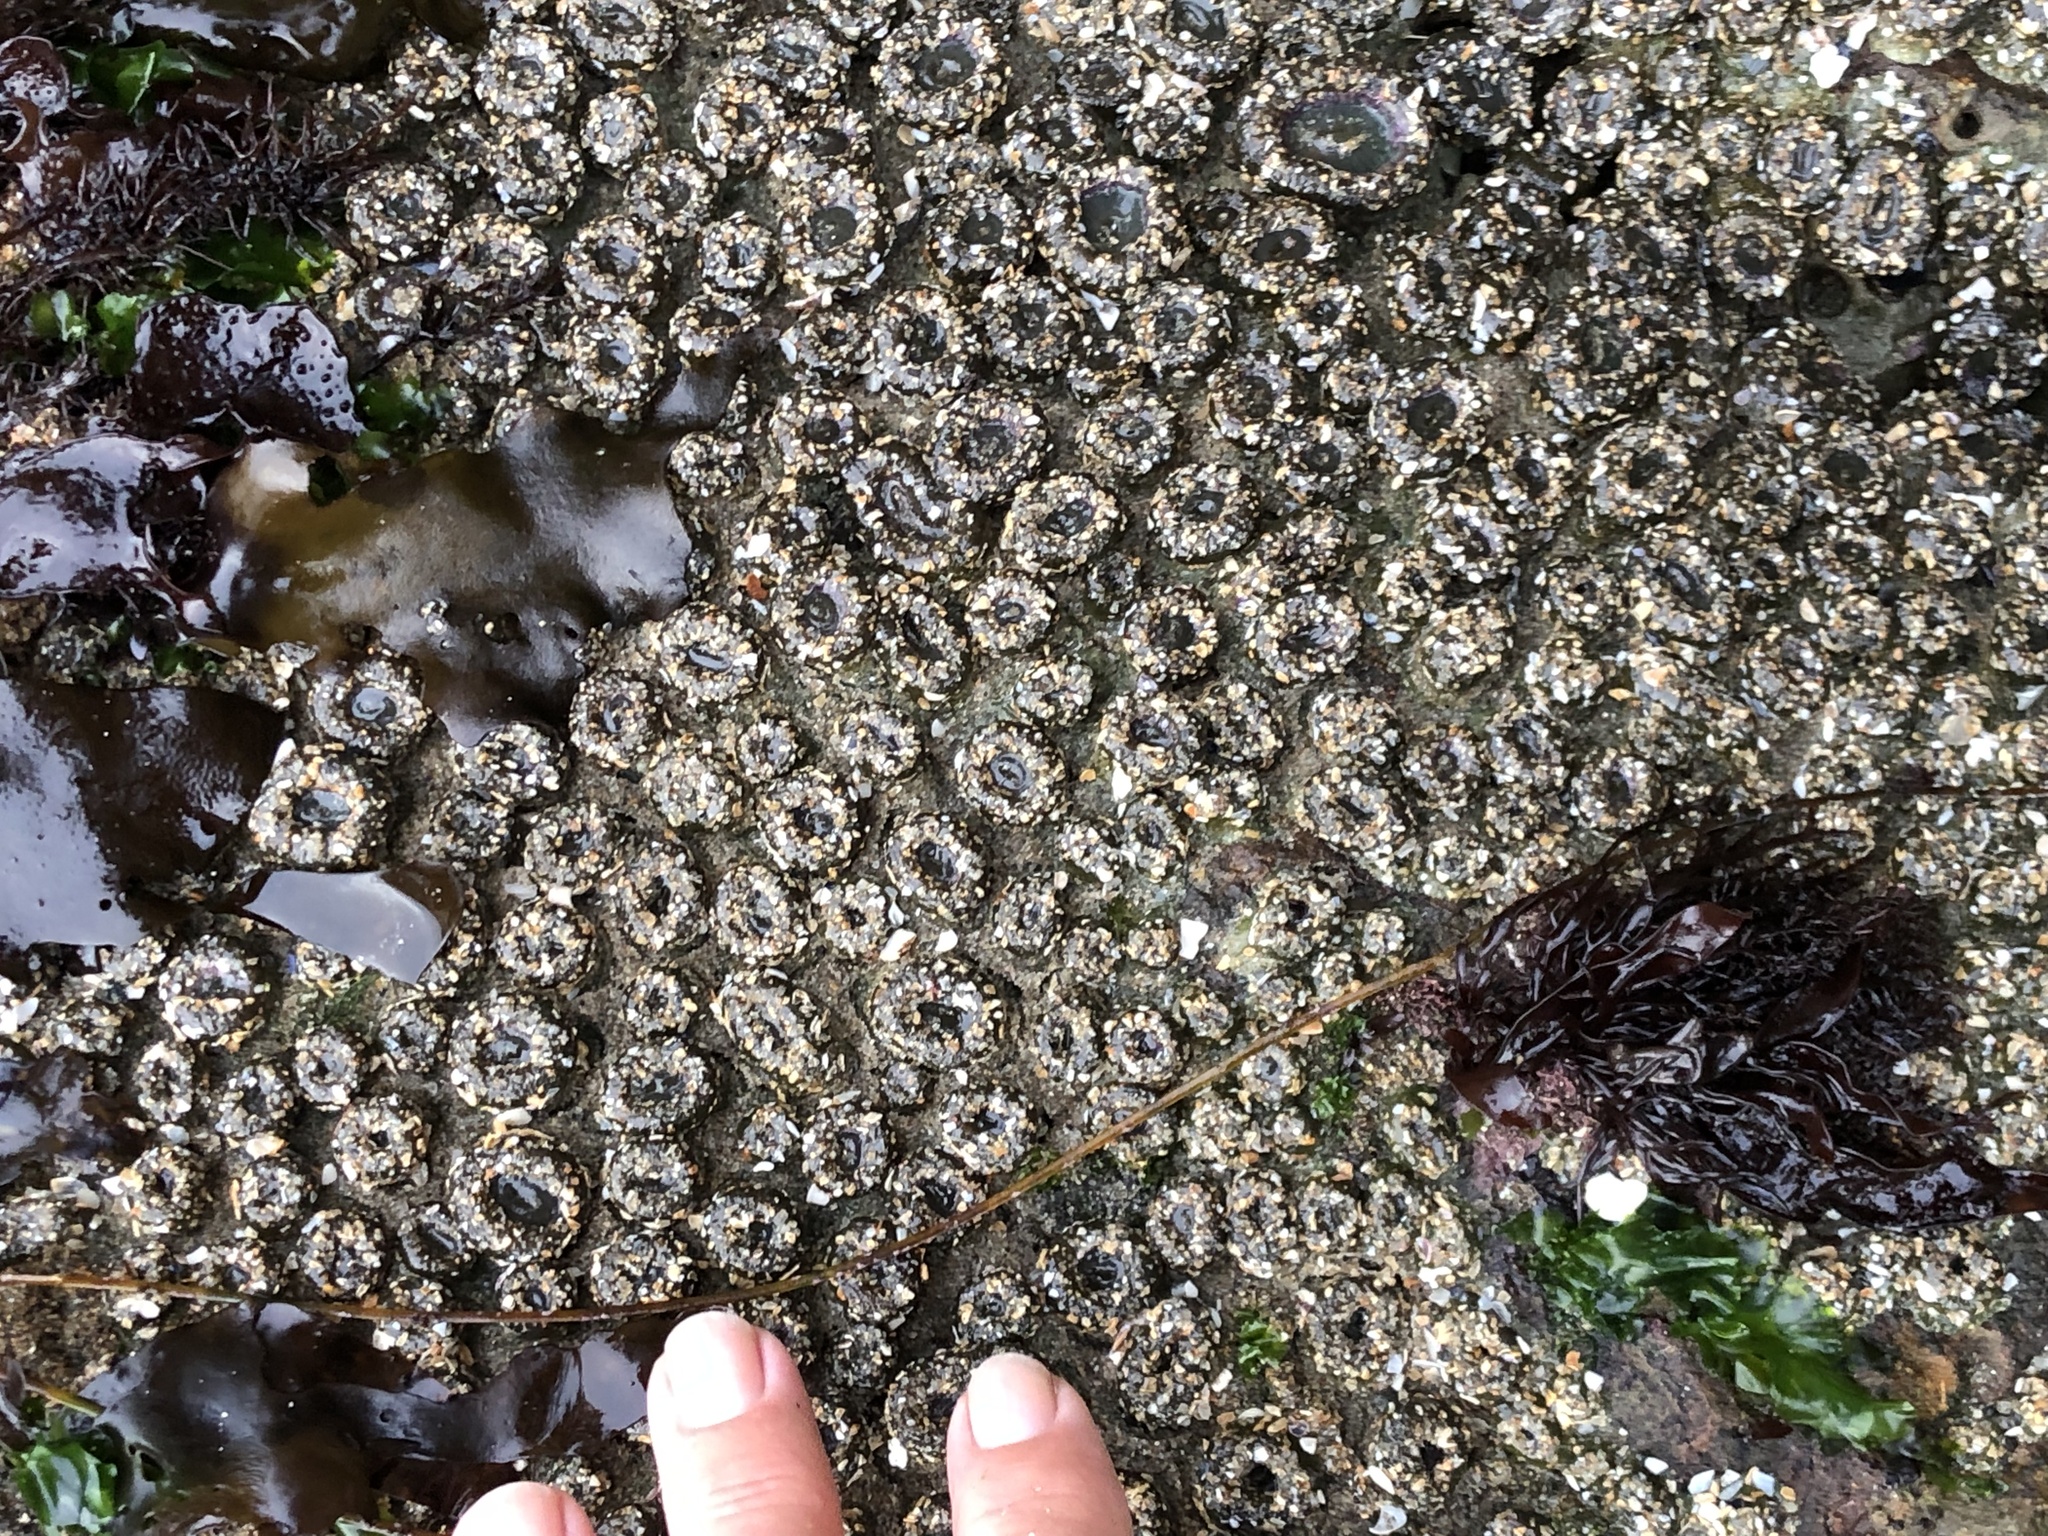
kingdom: Animalia
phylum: Cnidaria
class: Anthozoa
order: Actiniaria
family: Actiniidae
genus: Anthopleura
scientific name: Anthopleura elegantissima
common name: Clonal anemone
